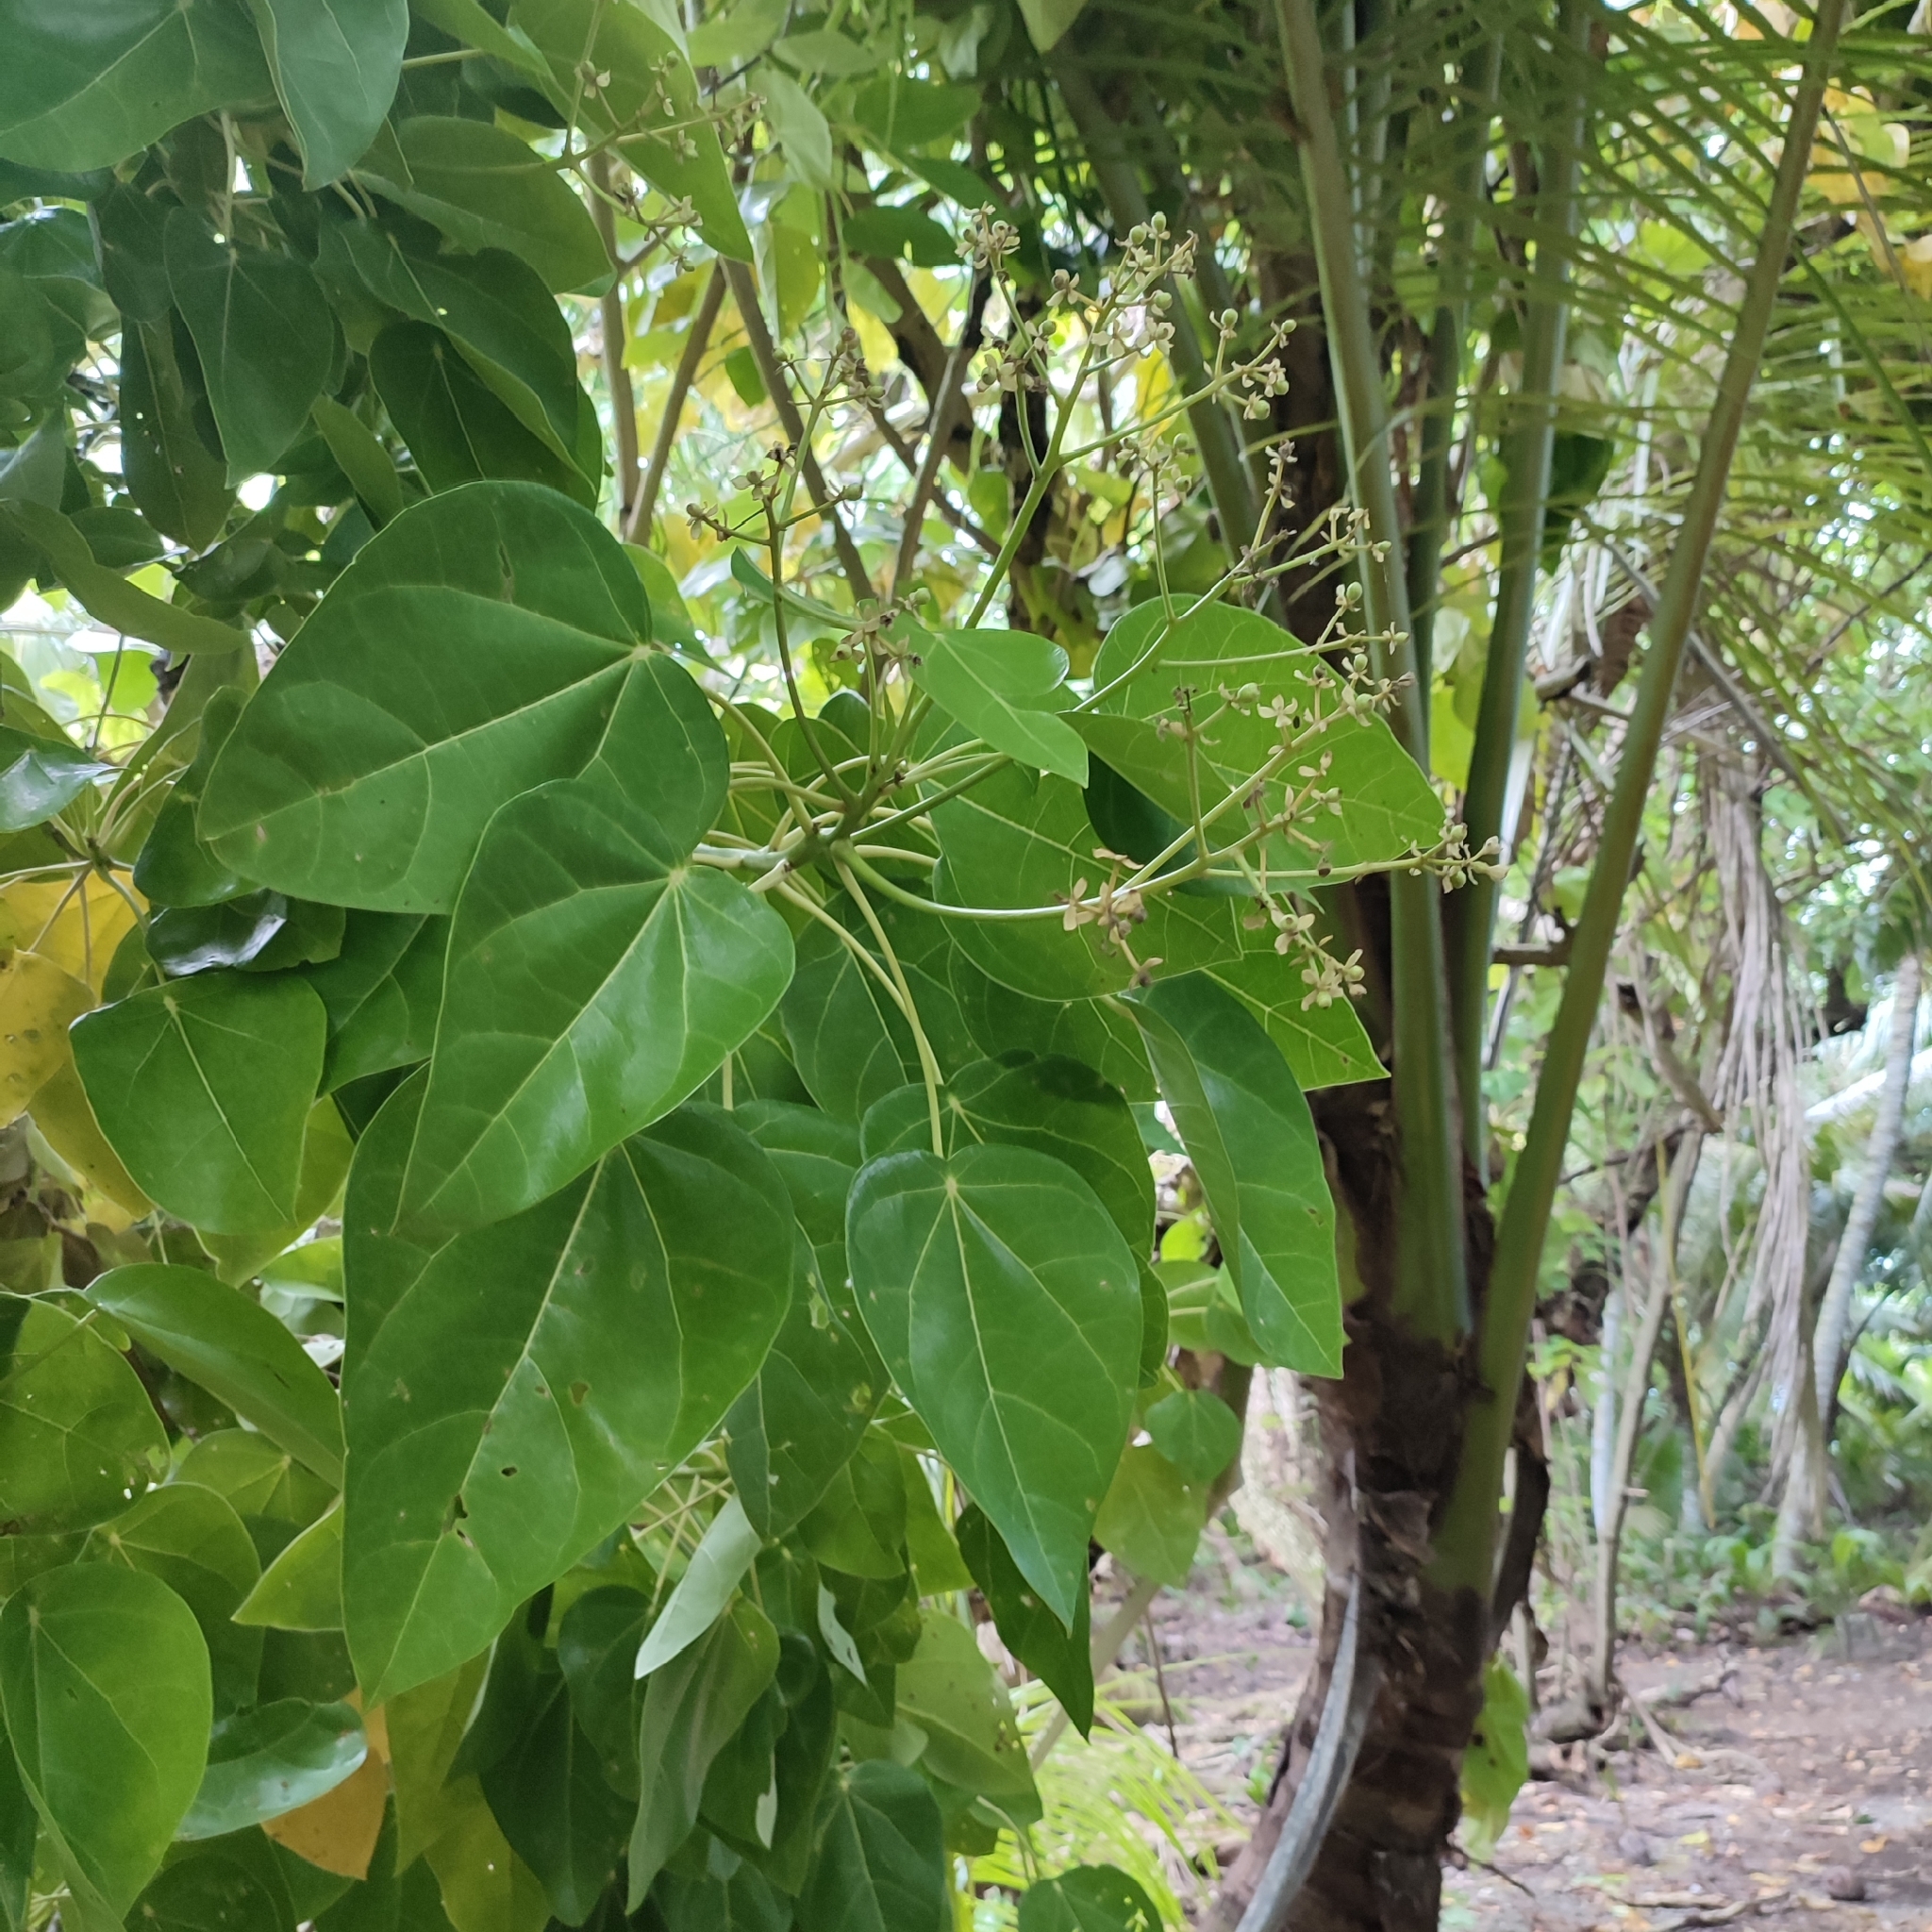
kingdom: Plantae
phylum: Tracheophyta
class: Magnoliopsida
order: Laurales
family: Hernandiaceae
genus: Hernandia
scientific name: Hernandia nymphaeifolia
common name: Sea hearse
